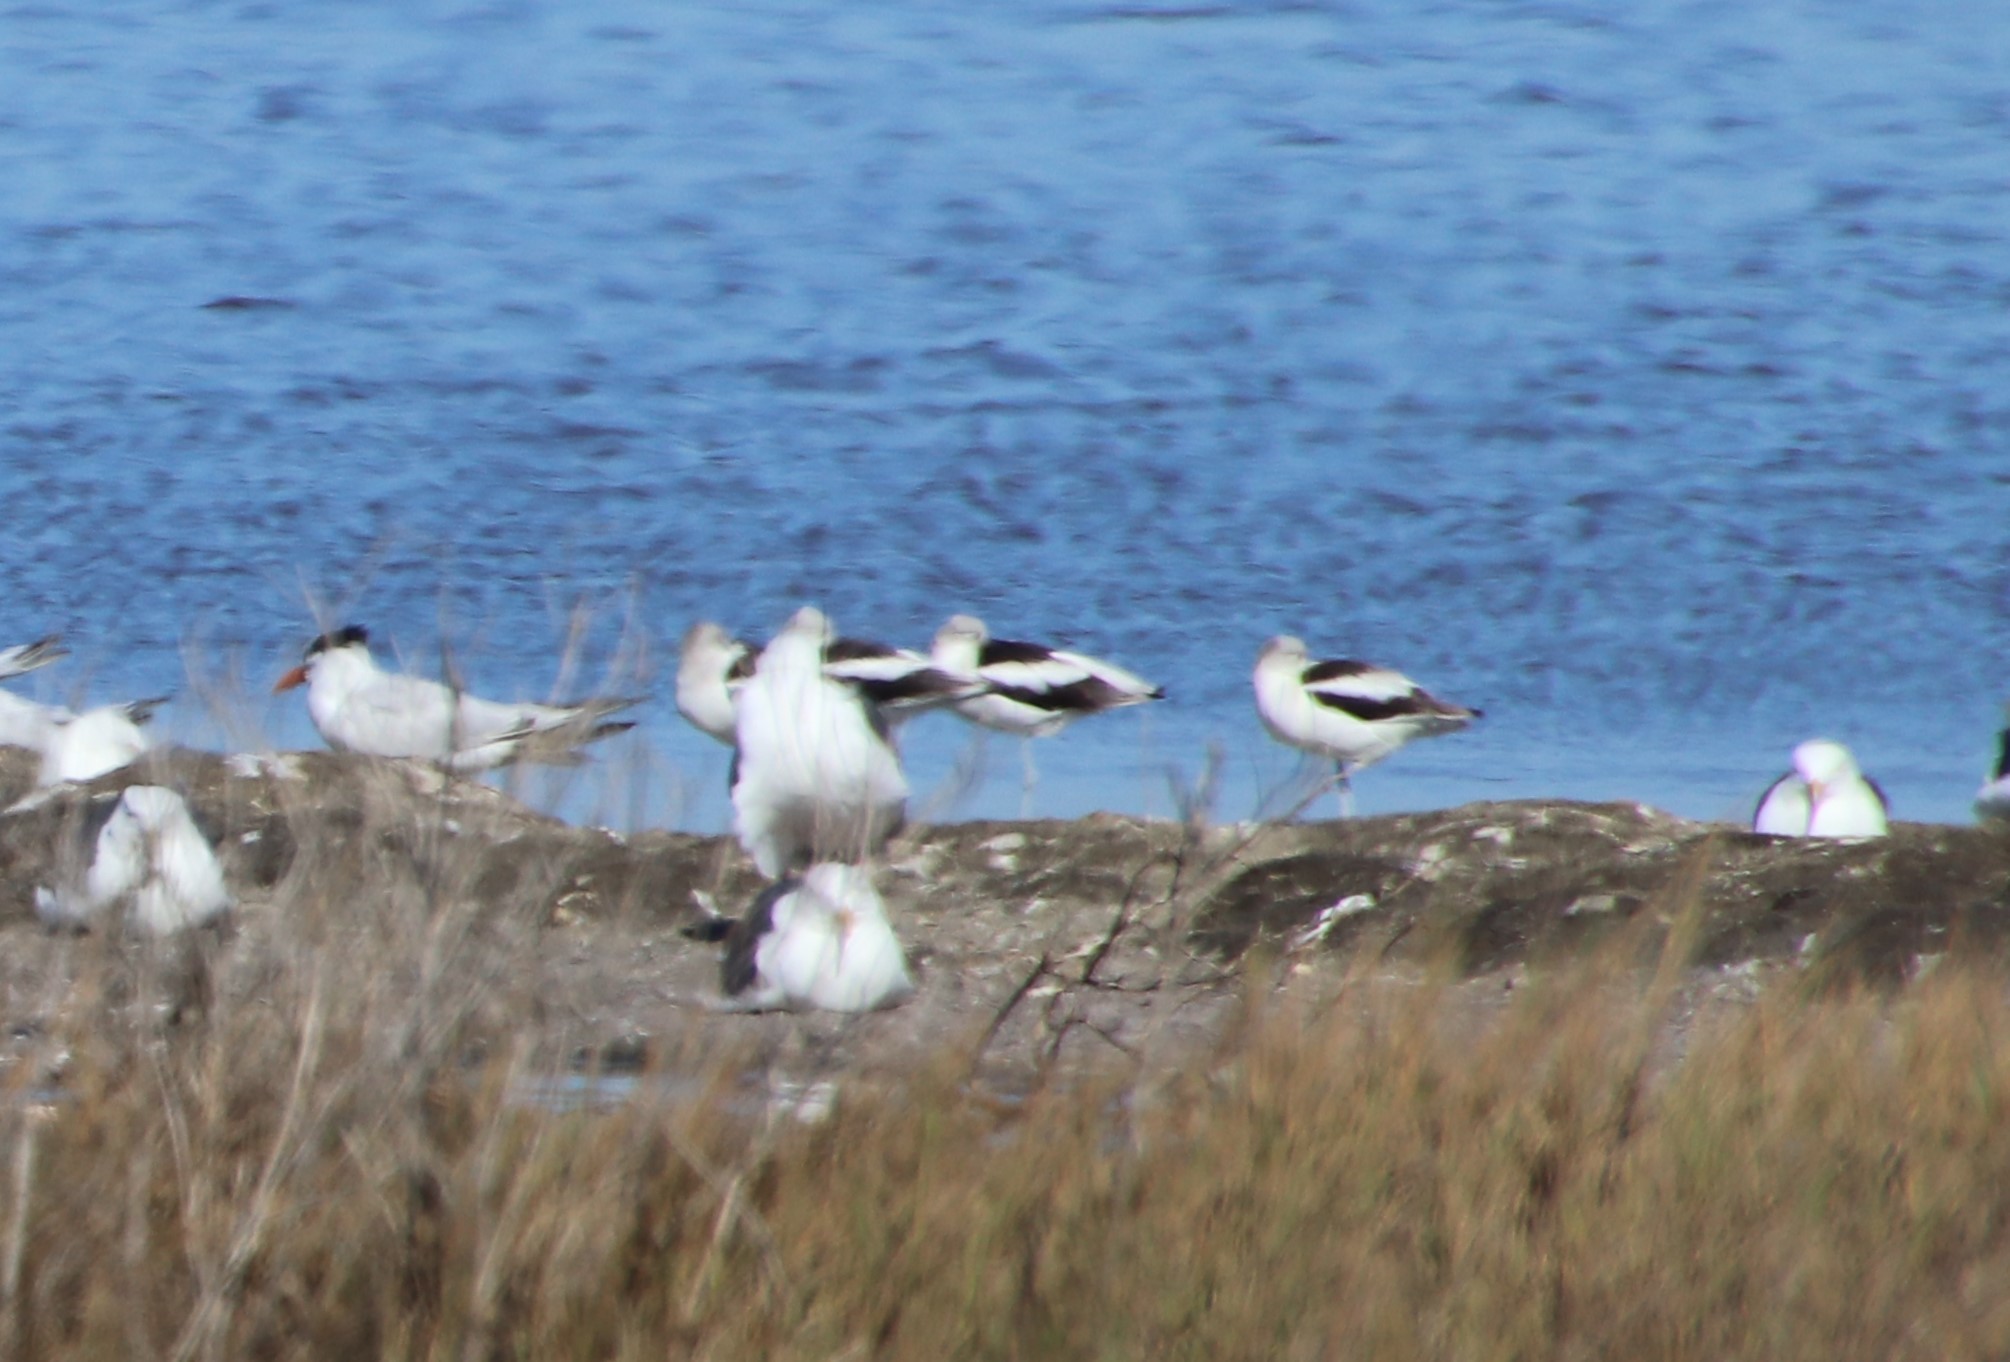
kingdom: Animalia
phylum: Chordata
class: Aves
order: Charadriiformes
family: Recurvirostridae
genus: Recurvirostra
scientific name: Recurvirostra americana
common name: American avocet
